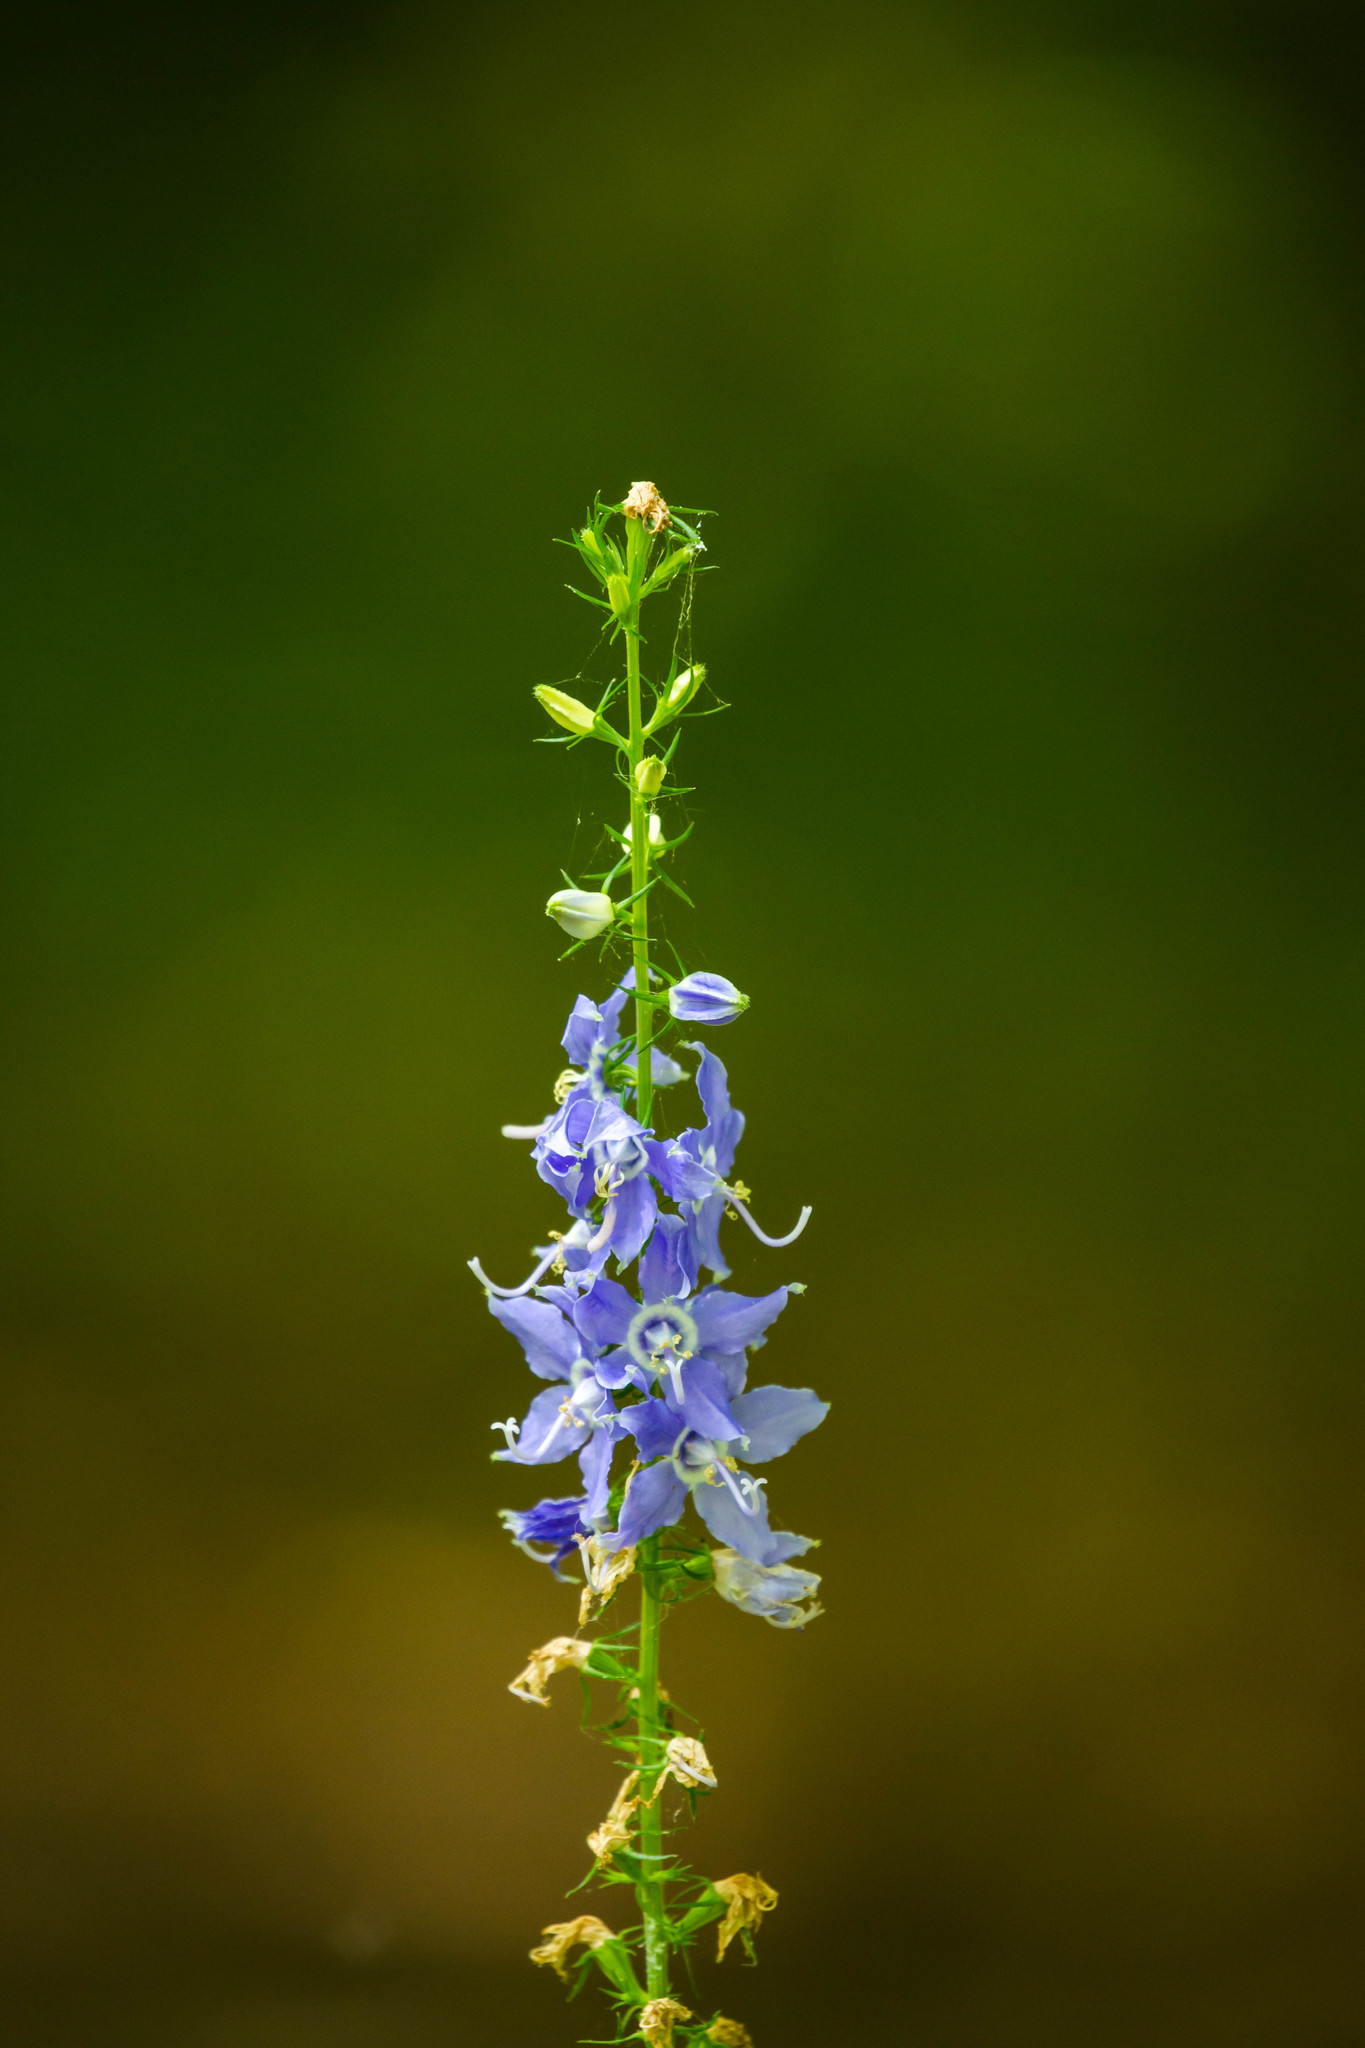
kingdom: Plantae
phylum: Tracheophyta
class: Magnoliopsida
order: Asterales
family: Campanulaceae
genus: Campanulastrum
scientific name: Campanulastrum americanum
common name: American bellflower
